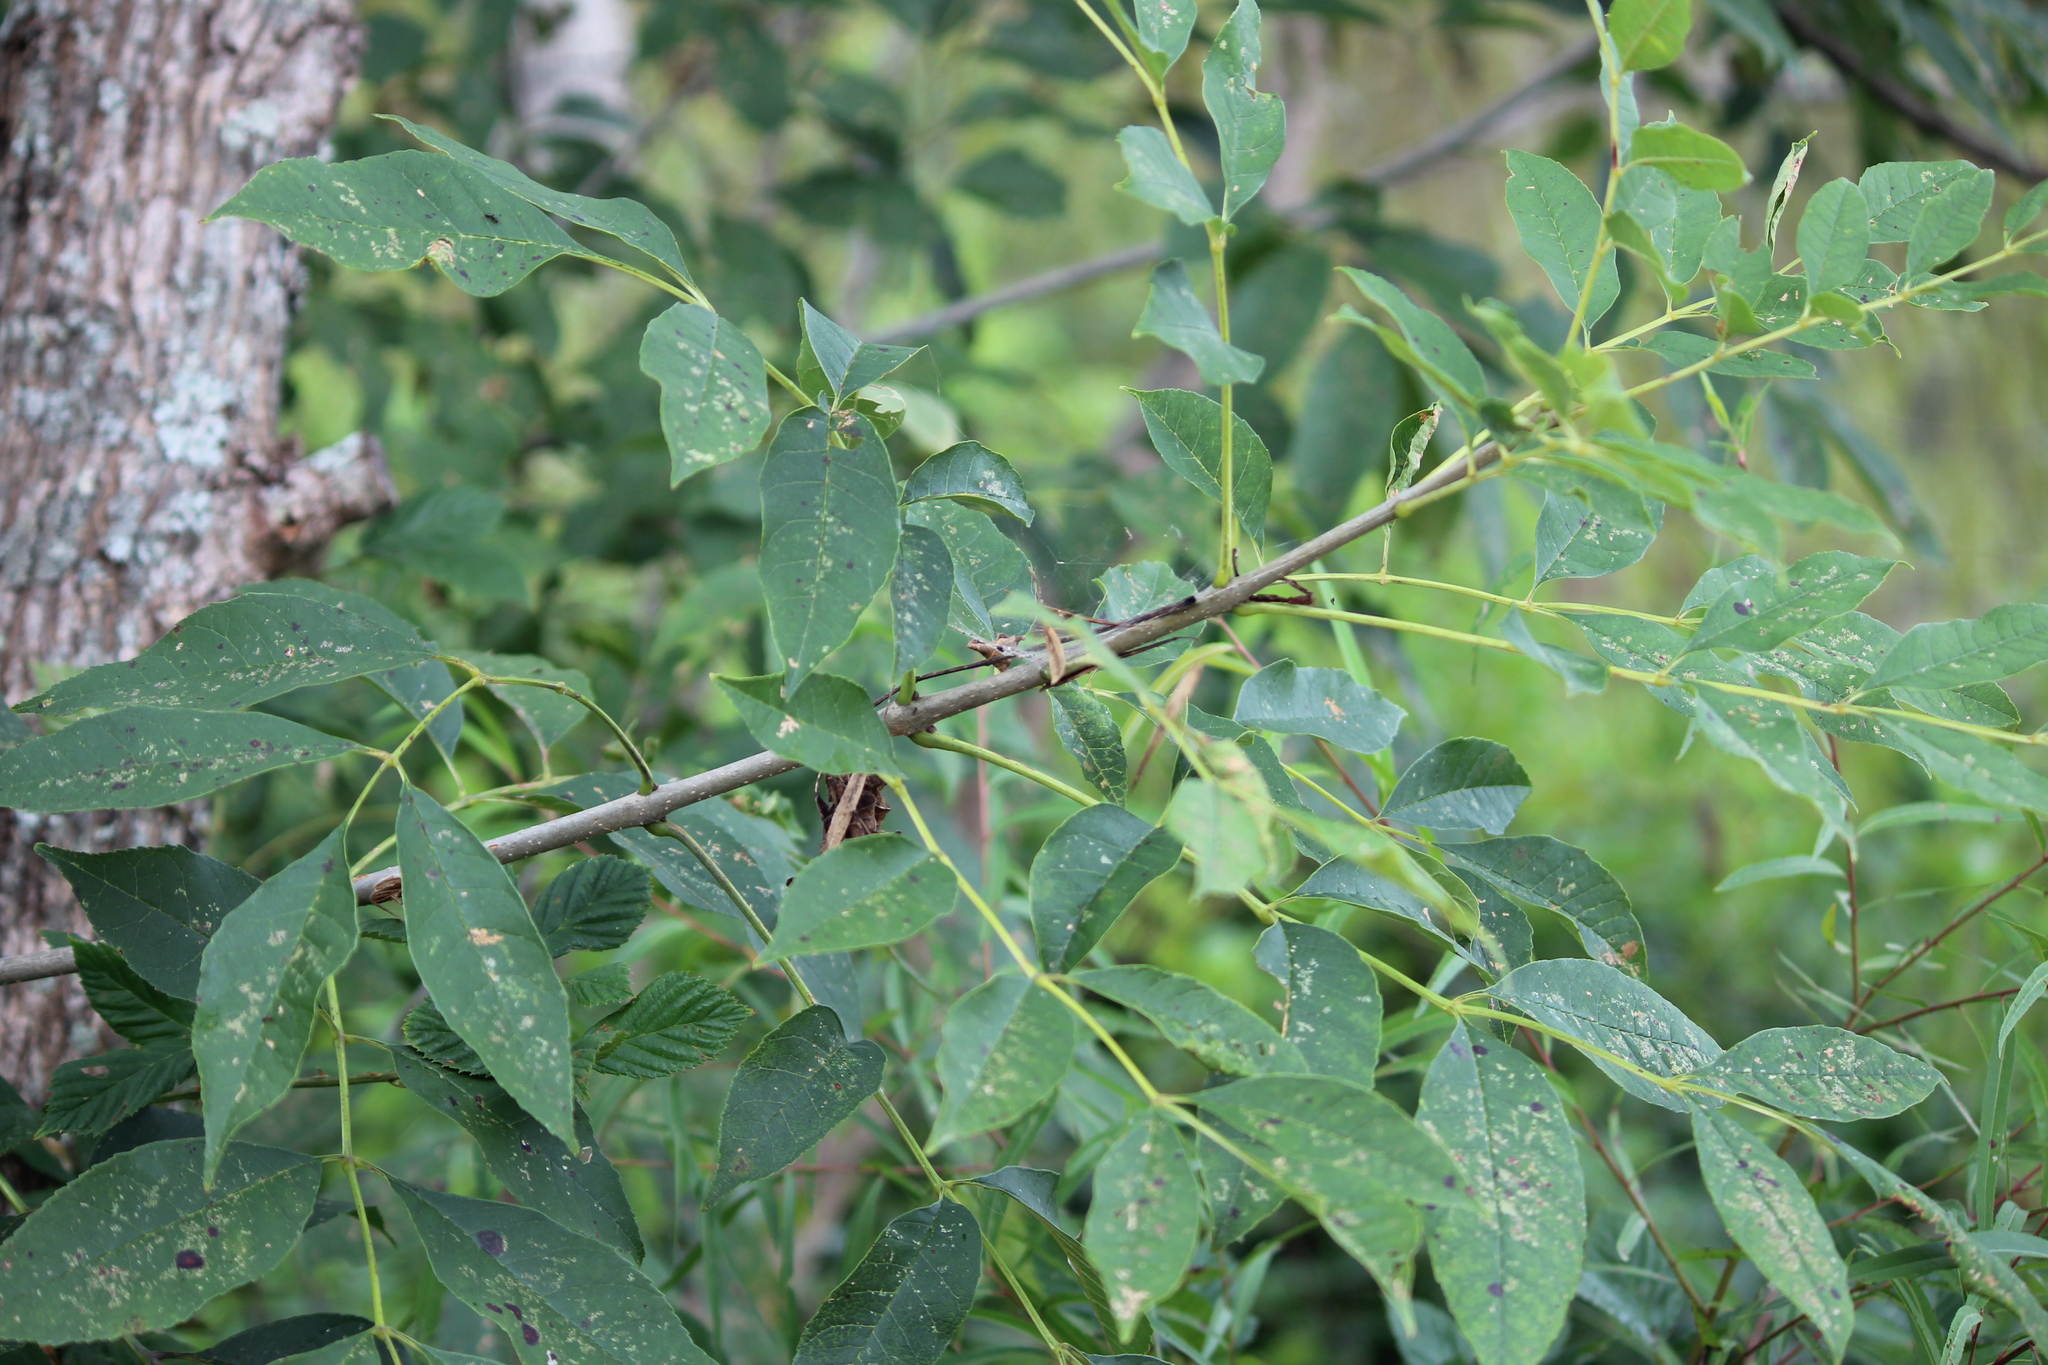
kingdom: Plantae
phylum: Tracheophyta
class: Magnoliopsida
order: Lamiales
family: Oleaceae
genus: Fraxinus
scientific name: Fraxinus pennsylvanica
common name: Green ash
